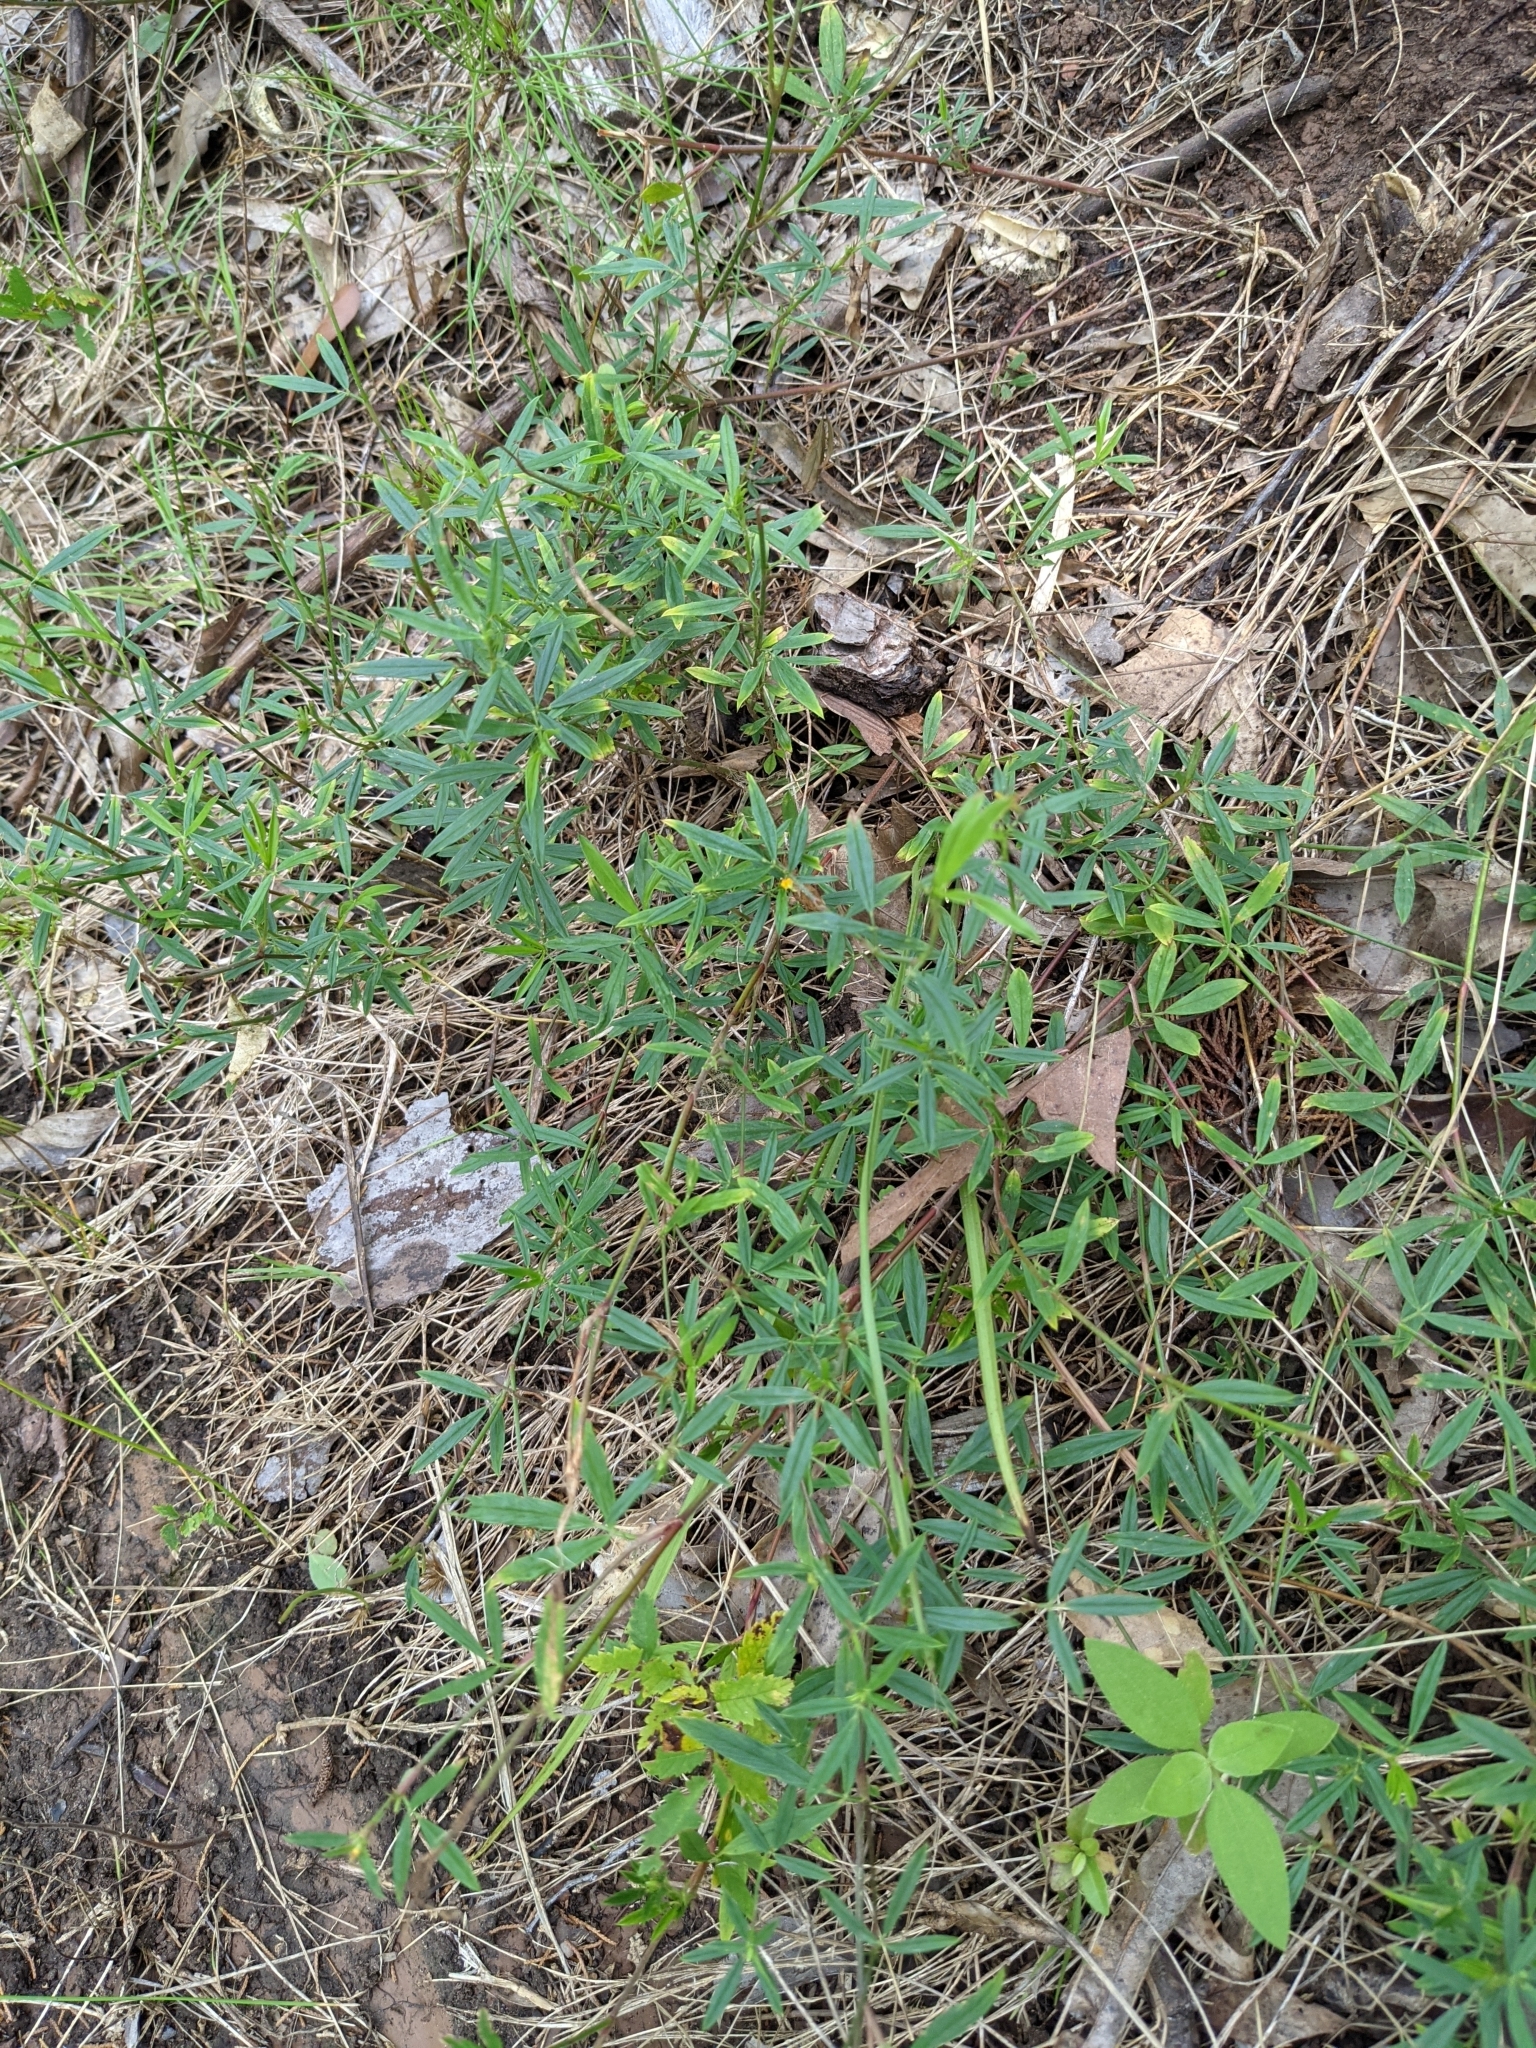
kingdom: Plantae
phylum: Tracheophyta
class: Magnoliopsida
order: Fabales
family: Fabaceae
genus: Stylosanthes
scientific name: Stylosanthes biflora
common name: Two-flower pencil-flower
